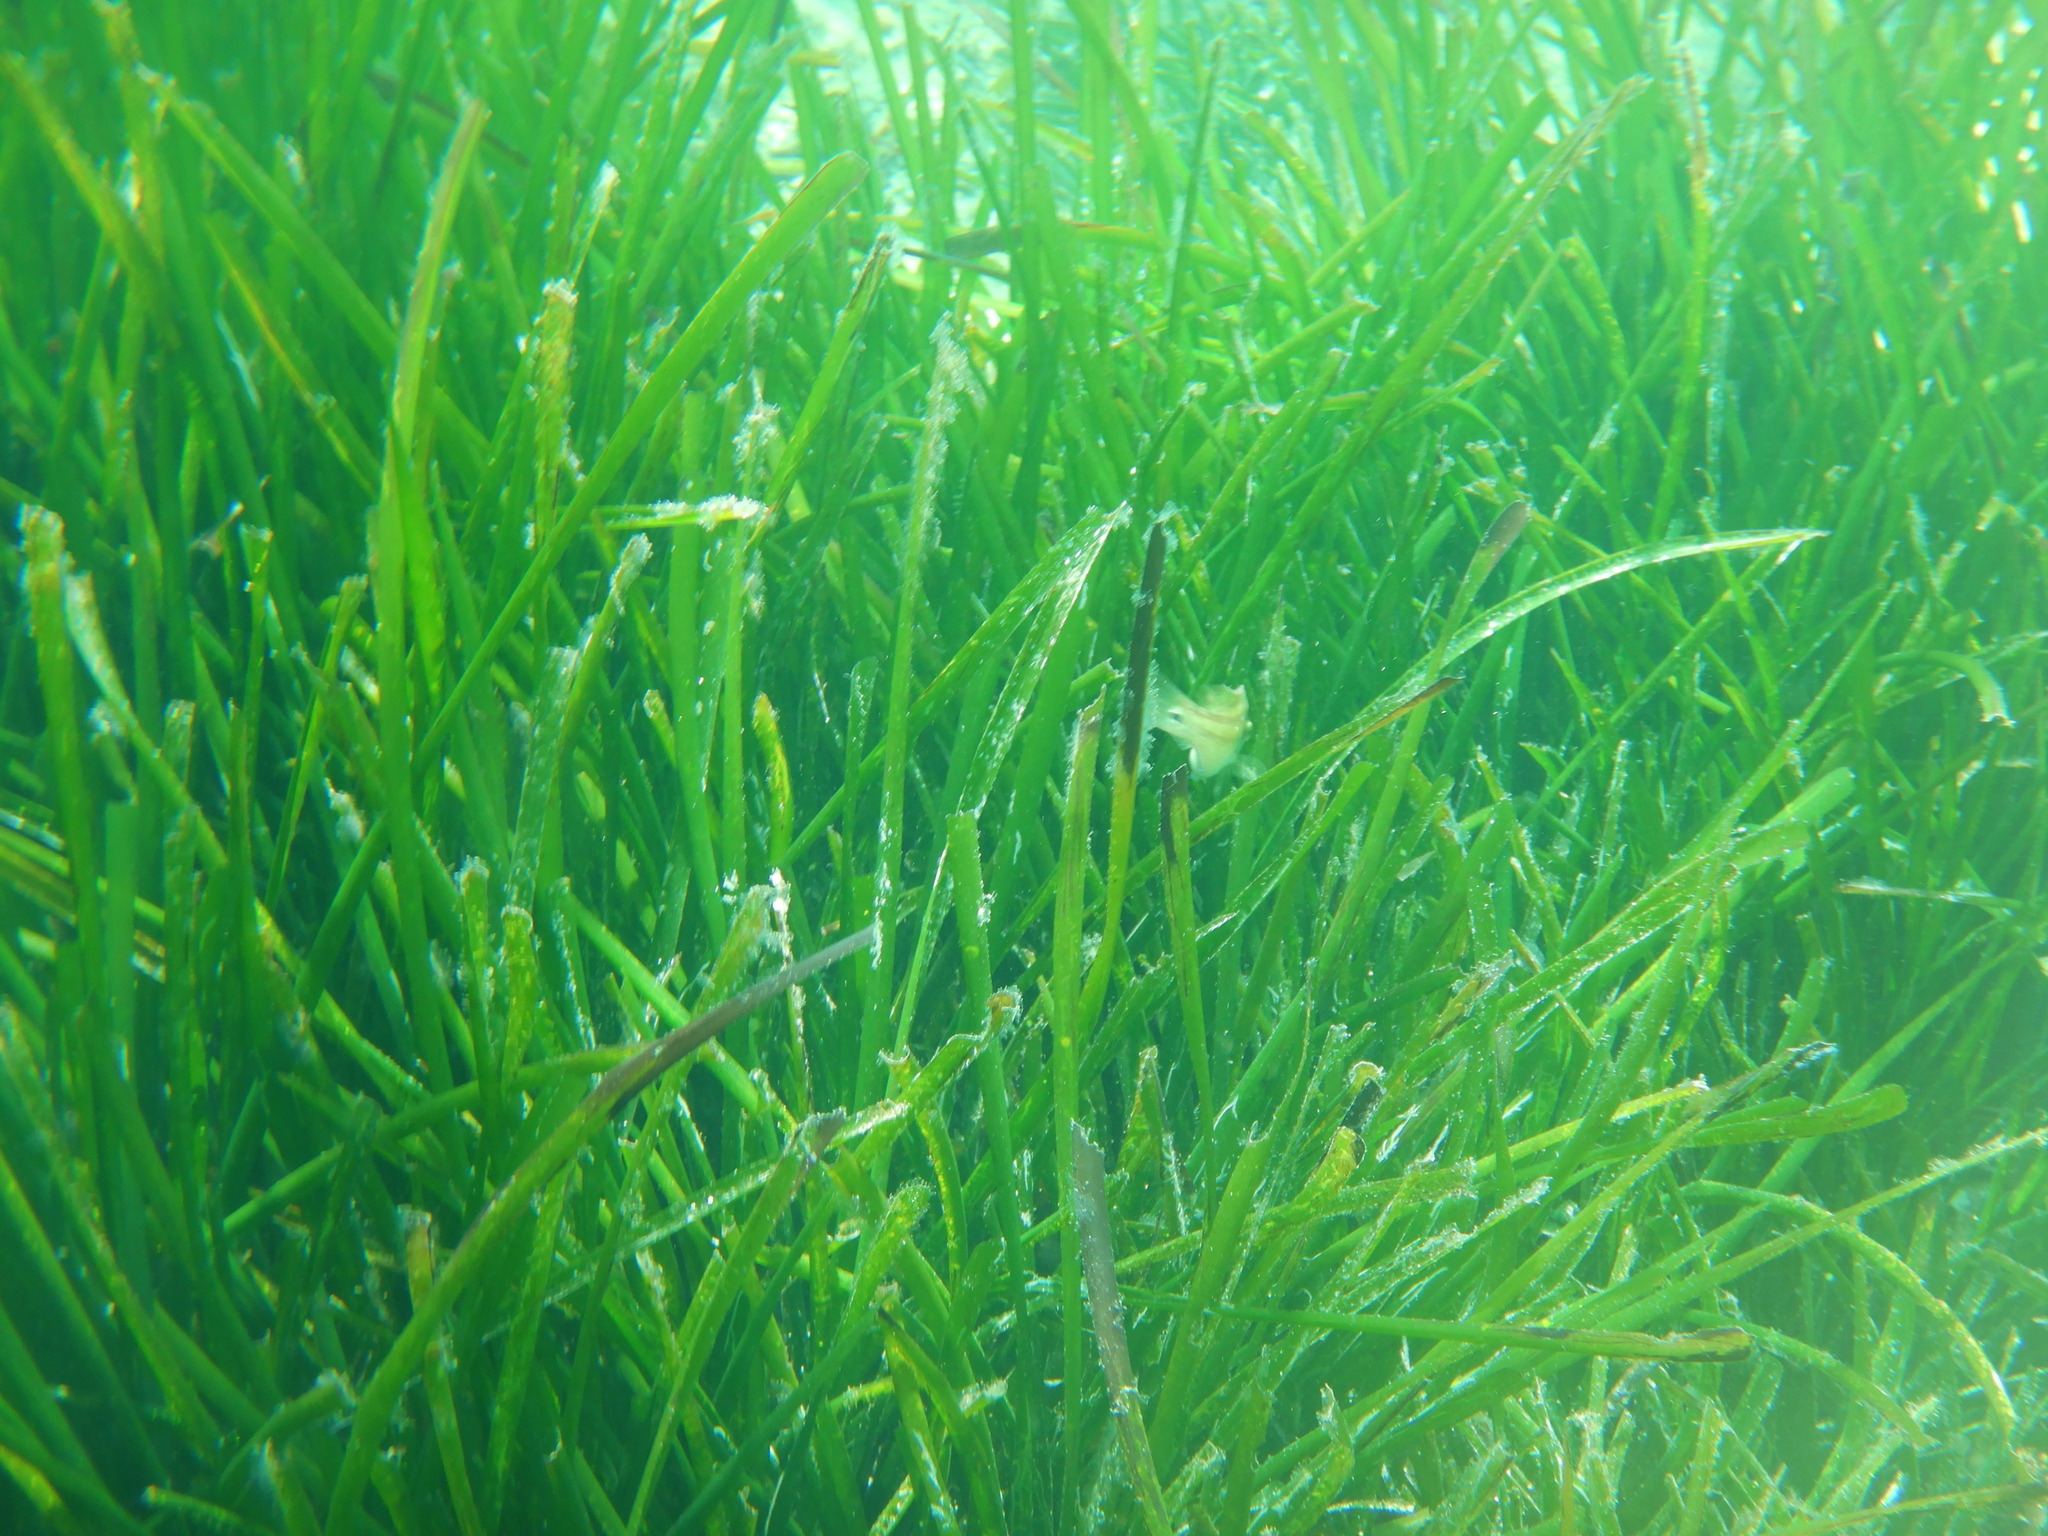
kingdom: Plantae
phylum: Tracheophyta
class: Liliopsida
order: Alismatales
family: Posidoniaceae
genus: Posidonia
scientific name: Posidonia oceanica
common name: Mediterranean tapeweed
